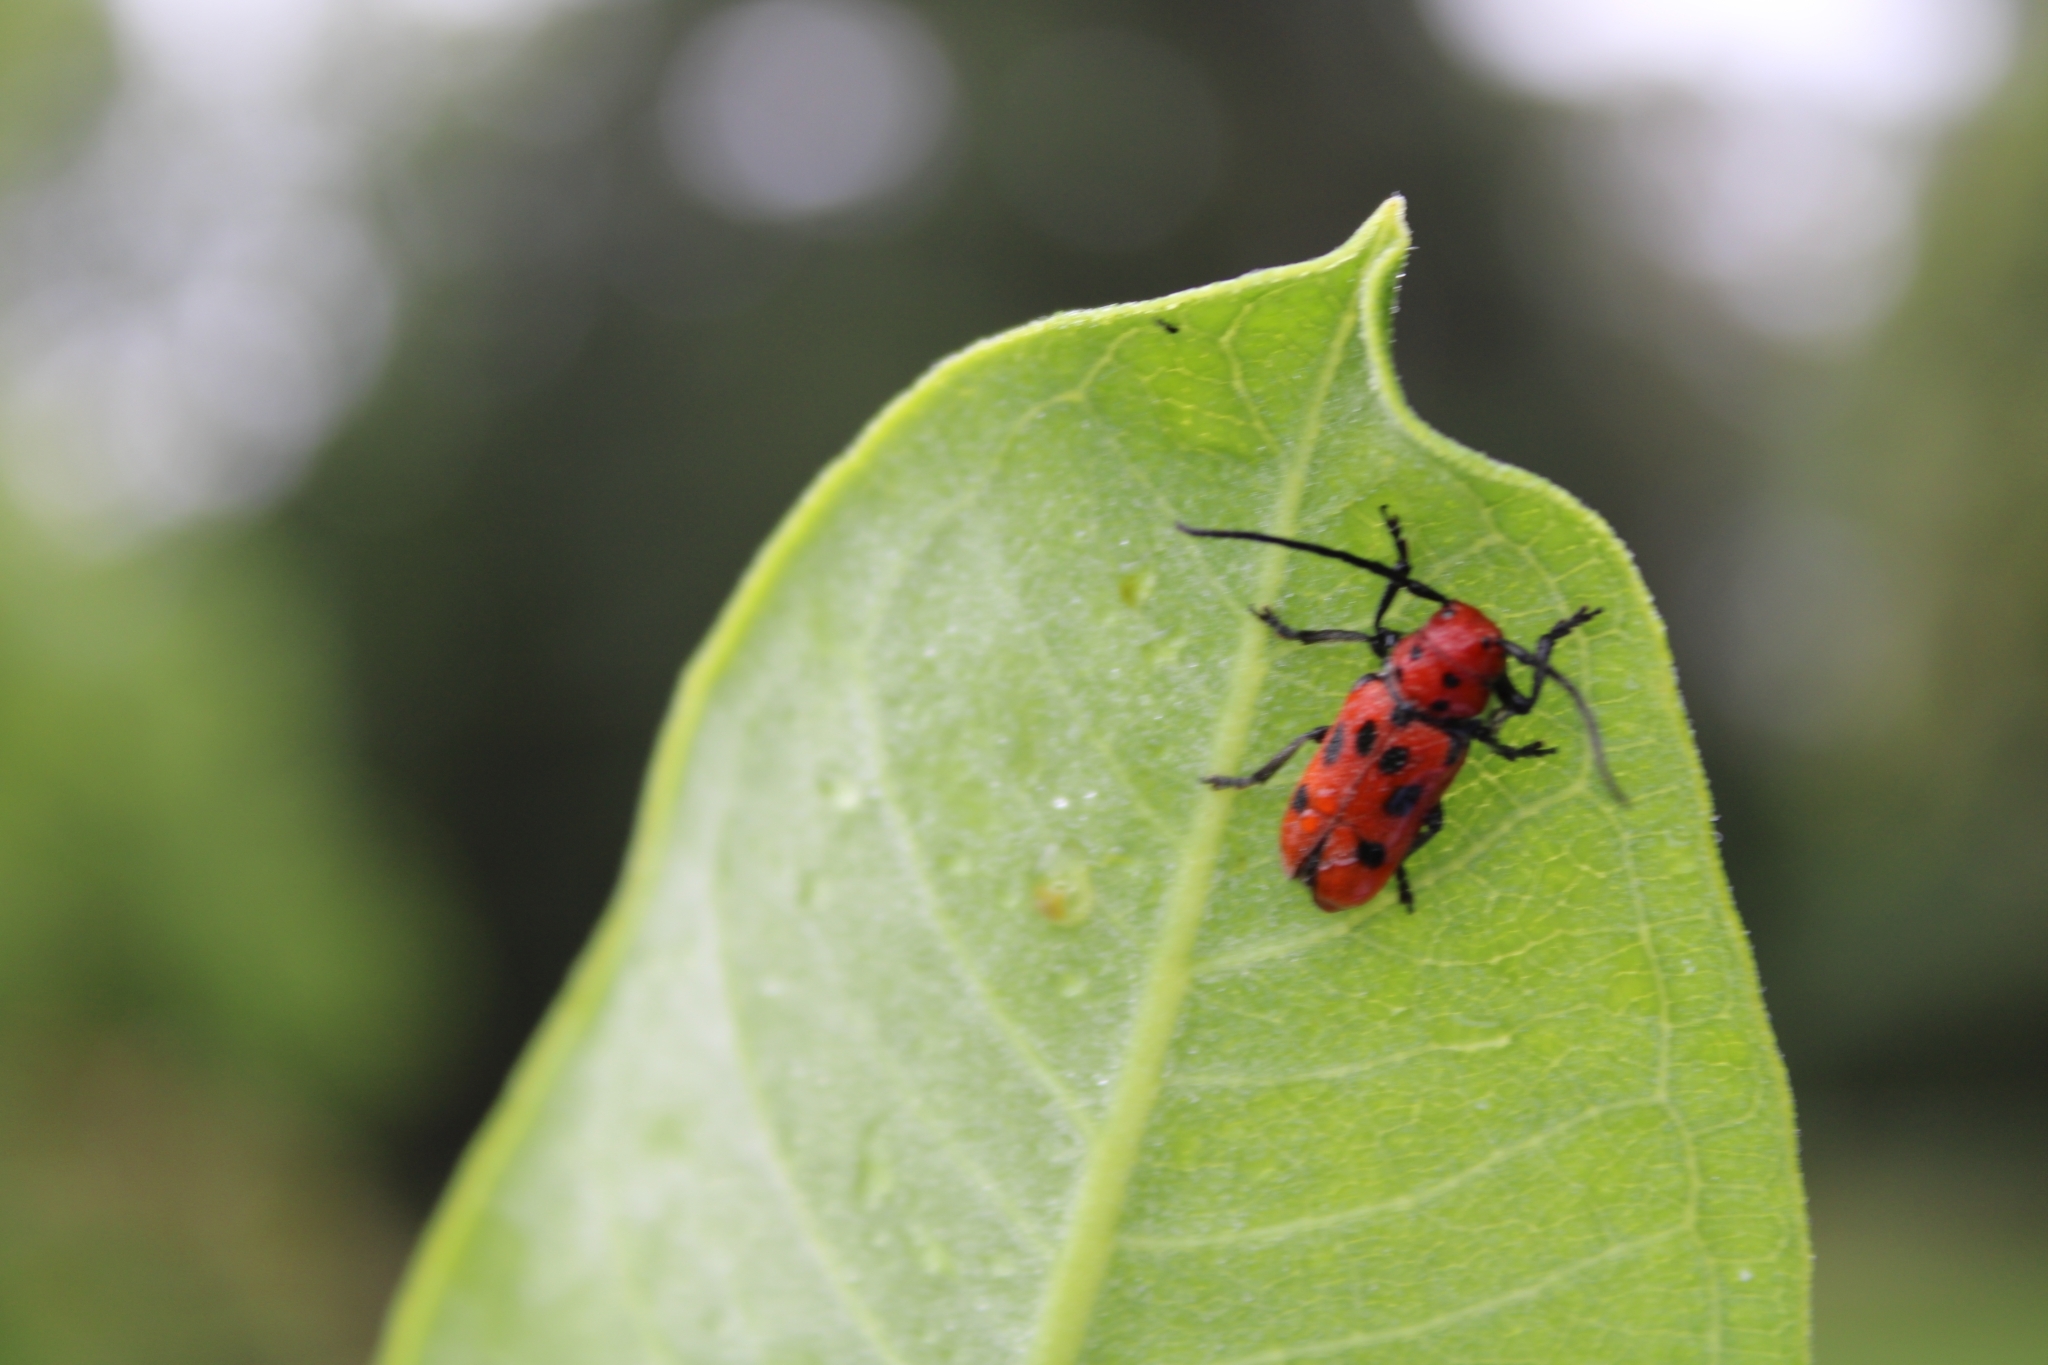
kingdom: Animalia
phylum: Arthropoda
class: Insecta
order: Coleoptera
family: Cerambycidae
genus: Tetraopes
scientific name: Tetraopes tetrophthalmus
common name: Red milkweed beetle
